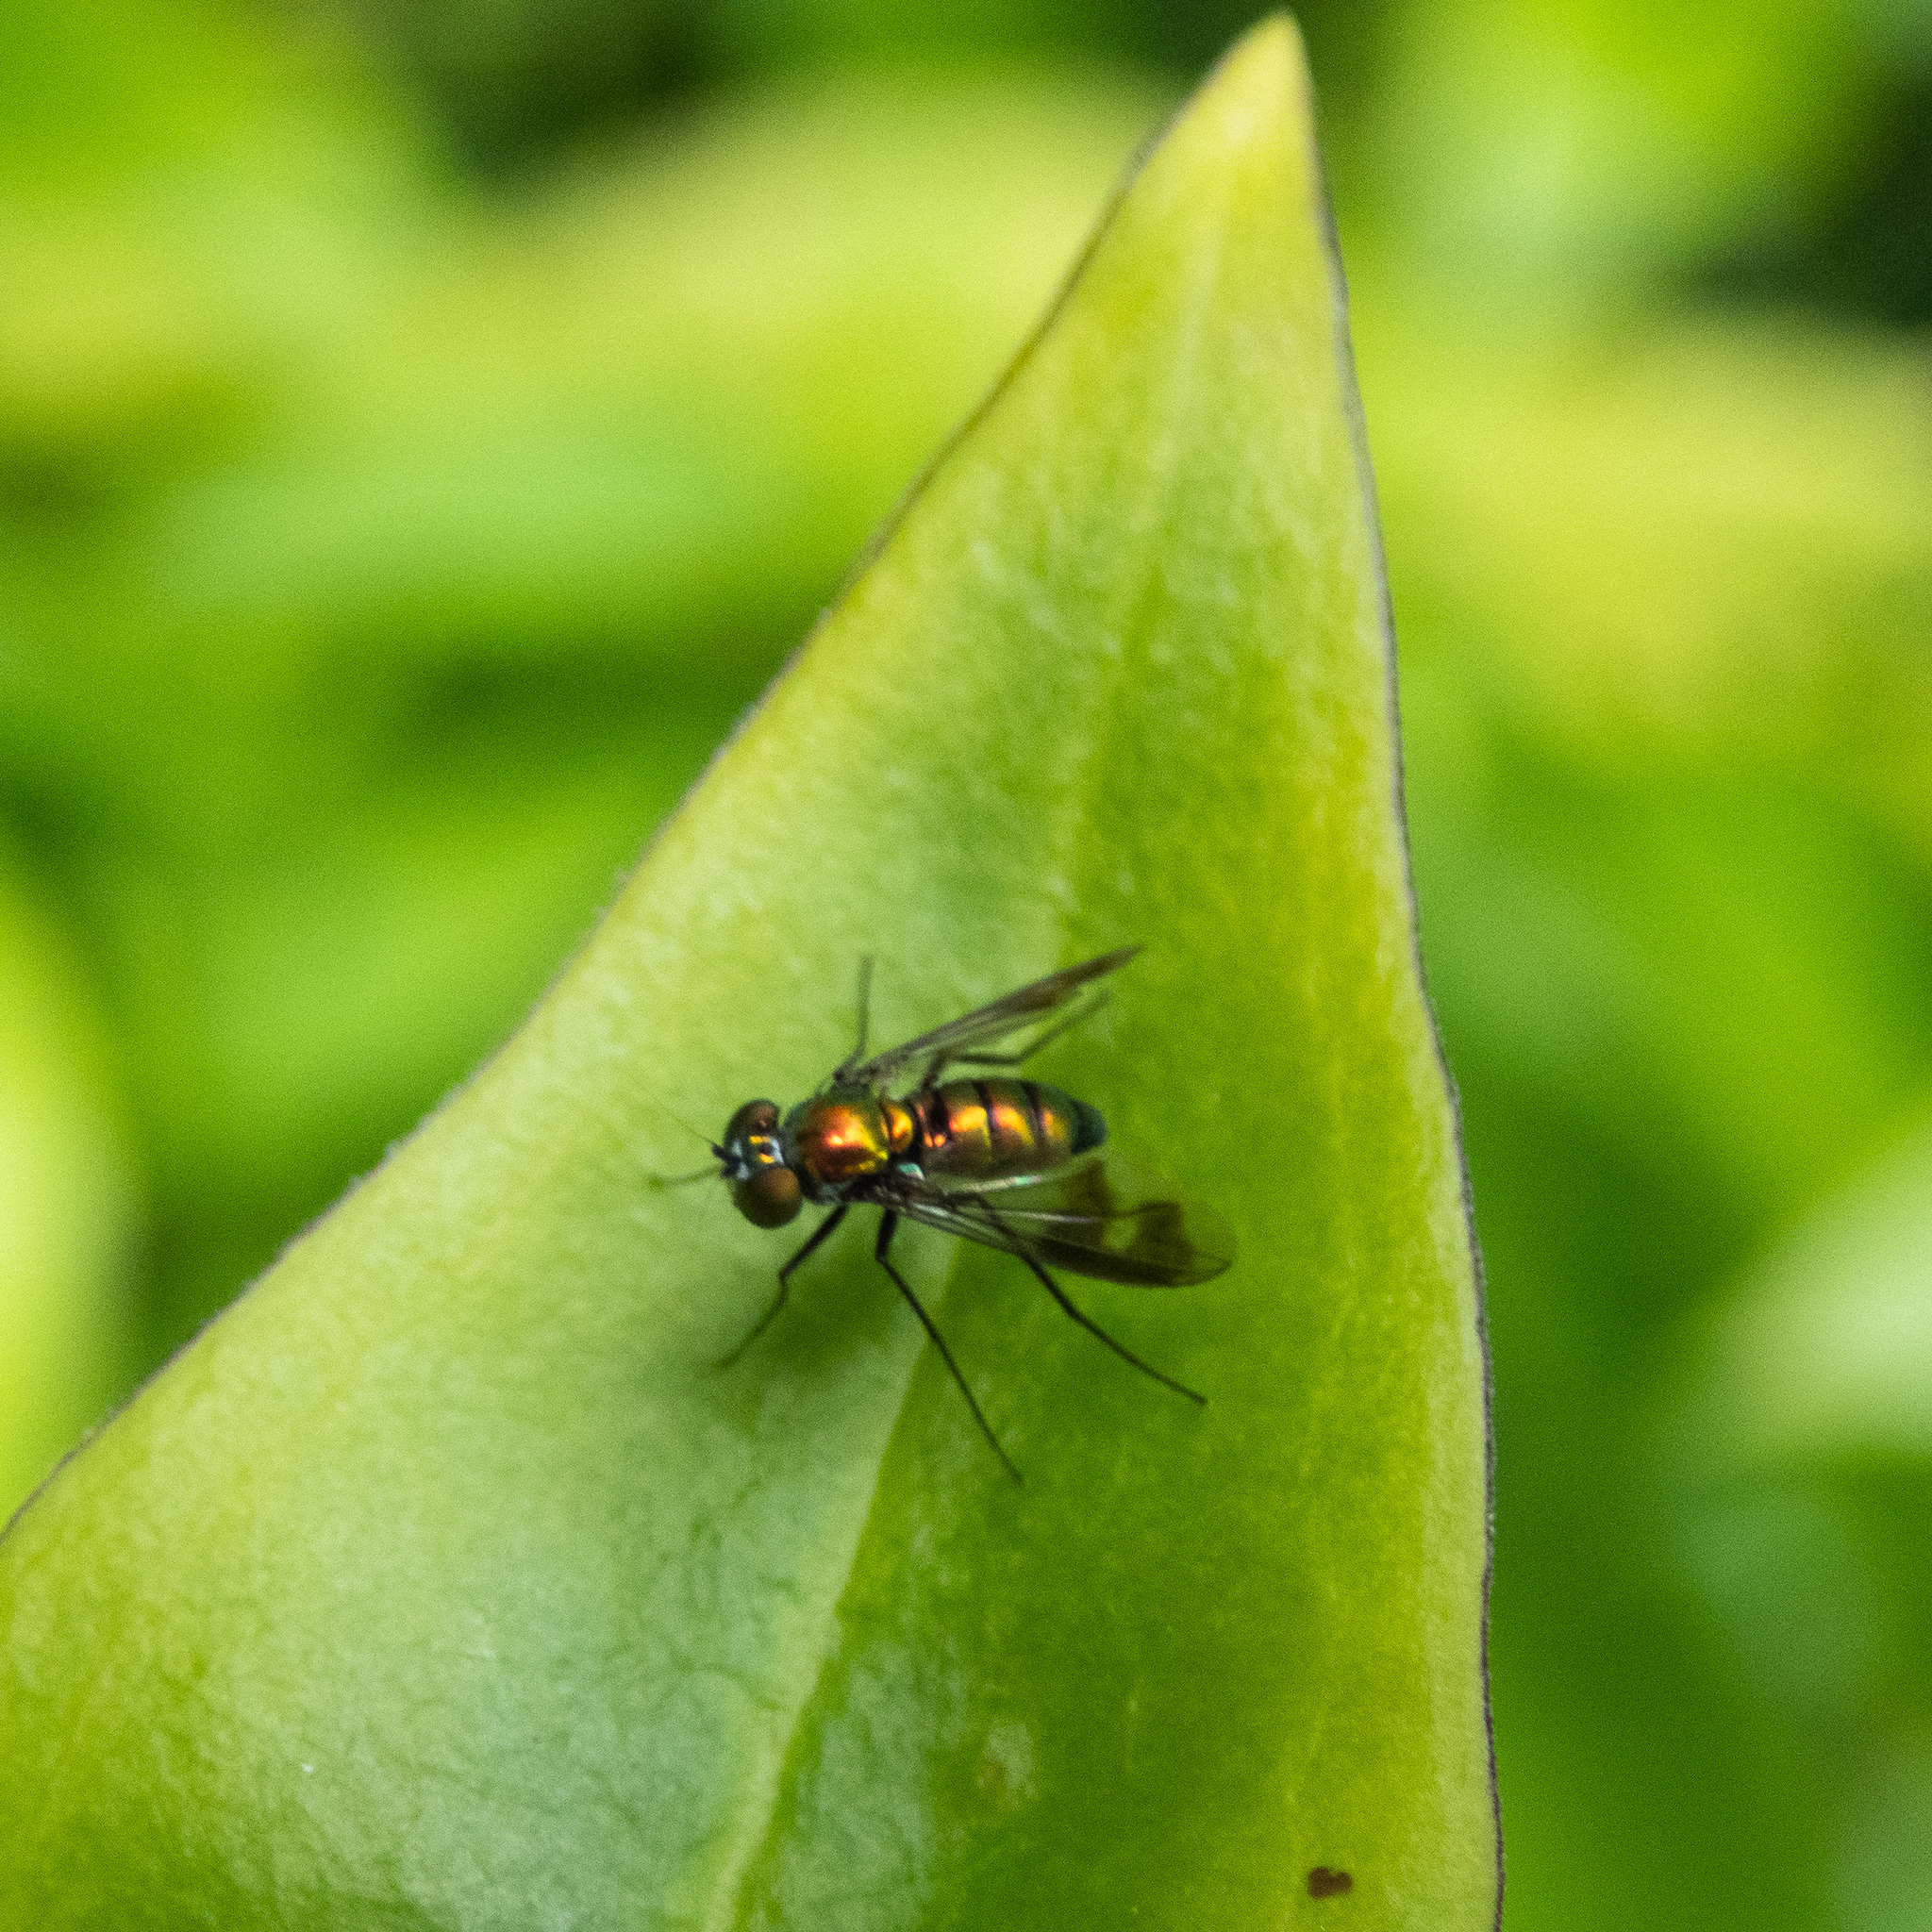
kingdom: Animalia
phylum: Arthropoda
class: Insecta
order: Diptera
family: Dolichopodidae
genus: Condylostylus
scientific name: Condylostylus patibulatus
